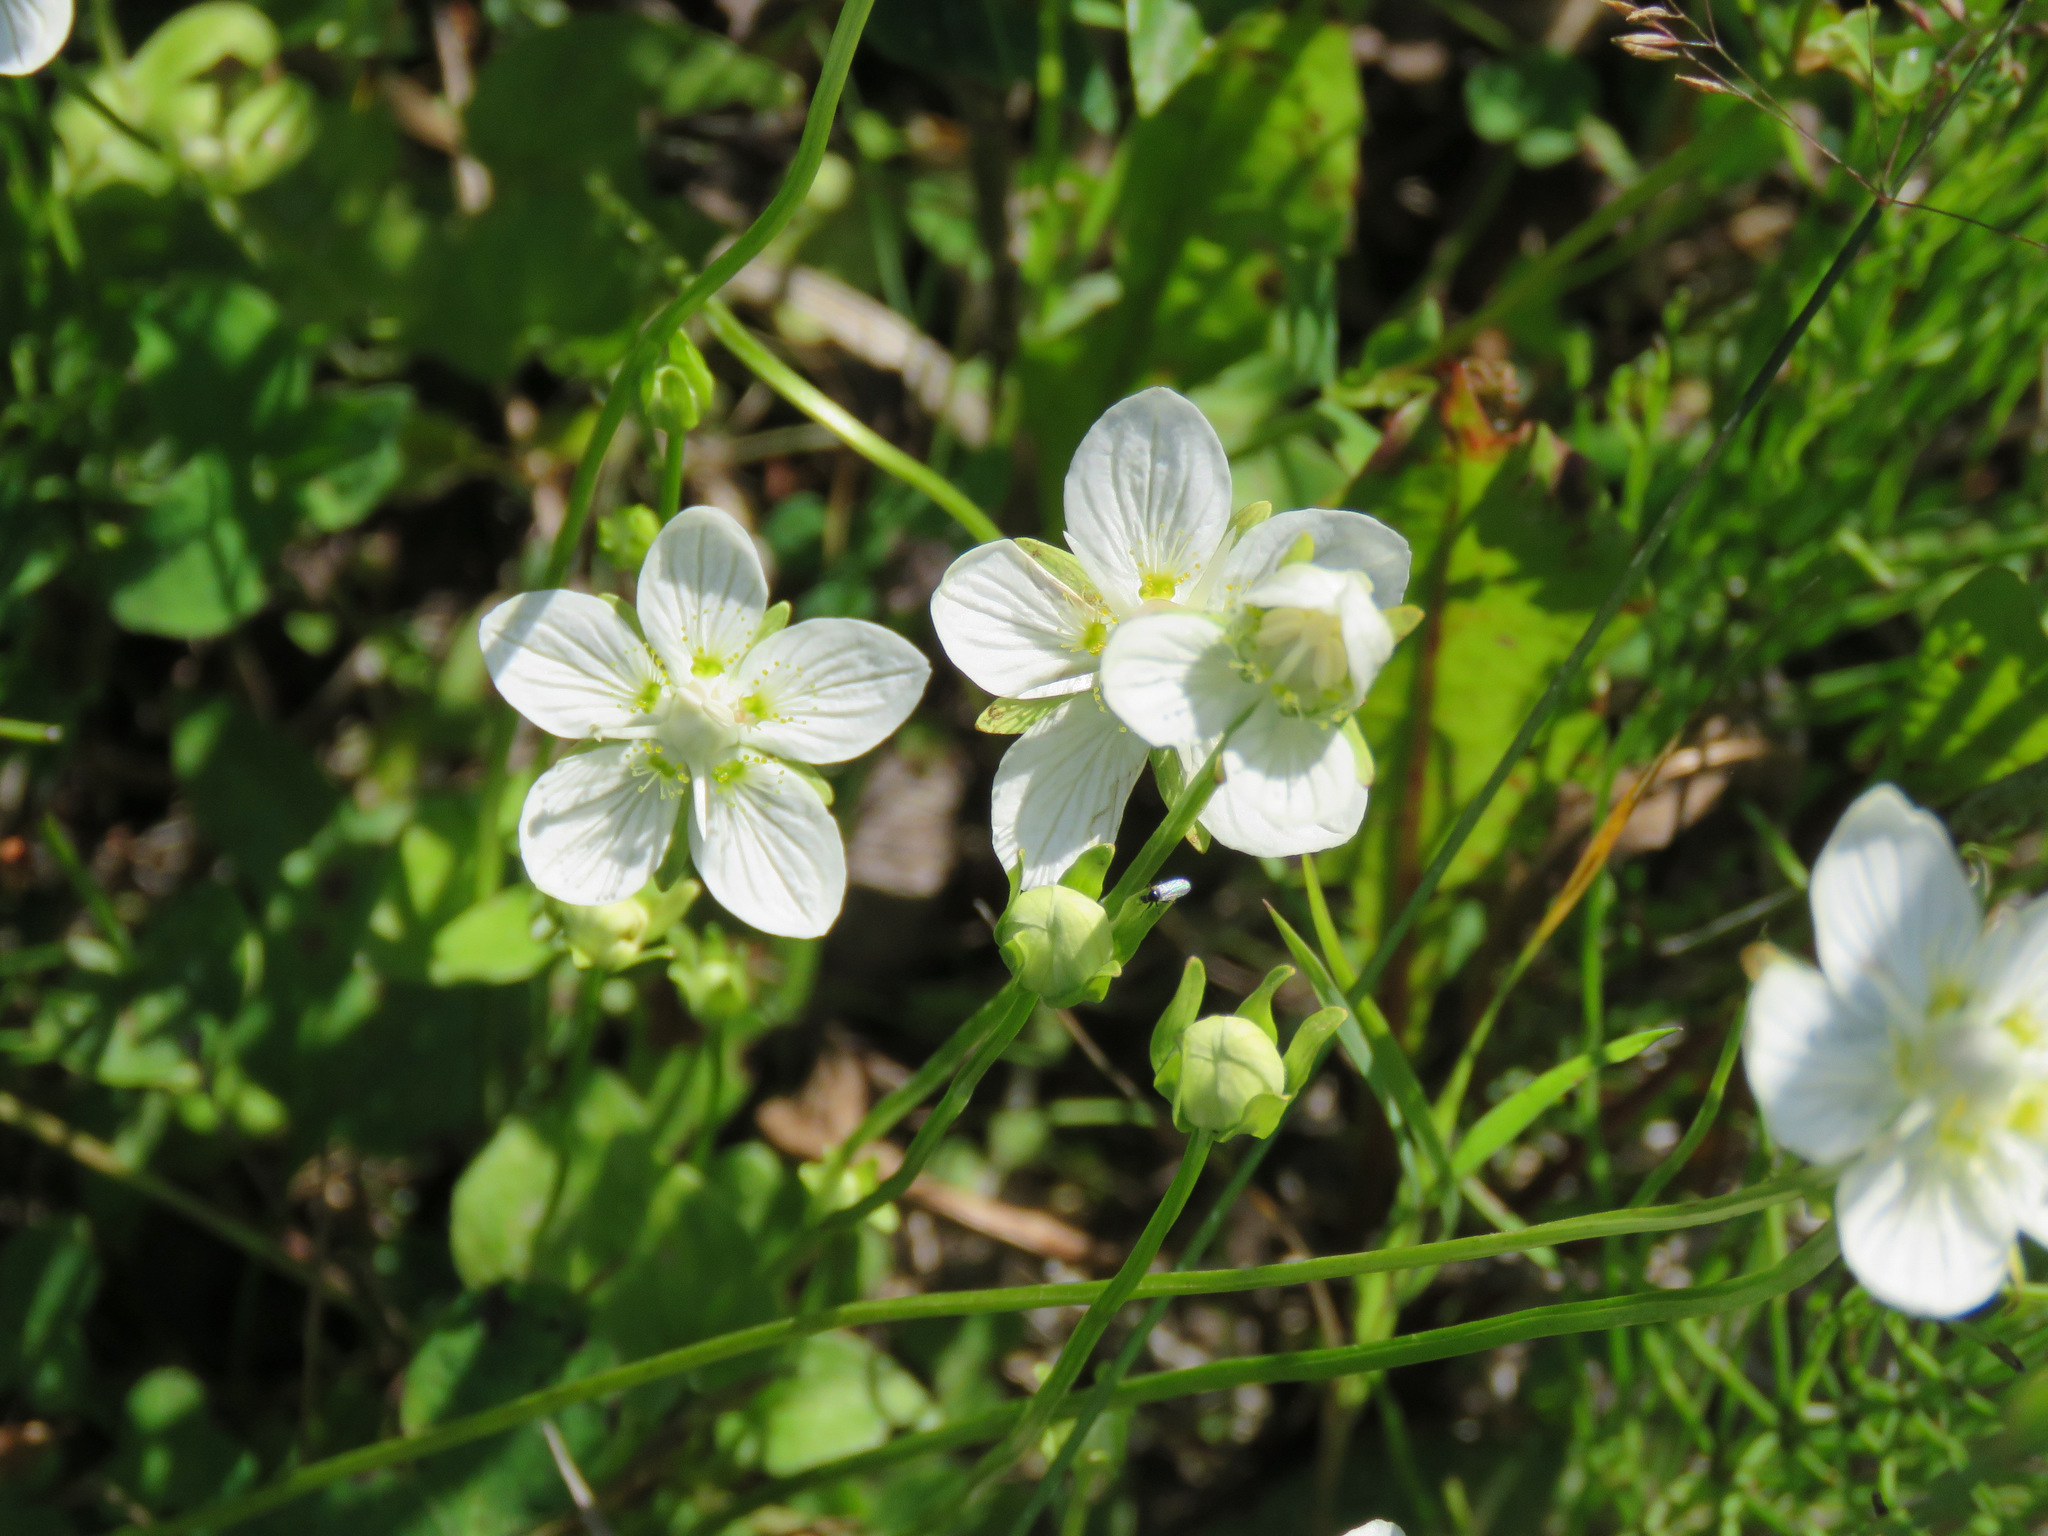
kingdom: Plantae
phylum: Tracheophyta
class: Magnoliopsida
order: Celastrales
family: Parnassiaceae
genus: Parnassia
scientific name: Parnassia palustris
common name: Grass-of-parnassus
